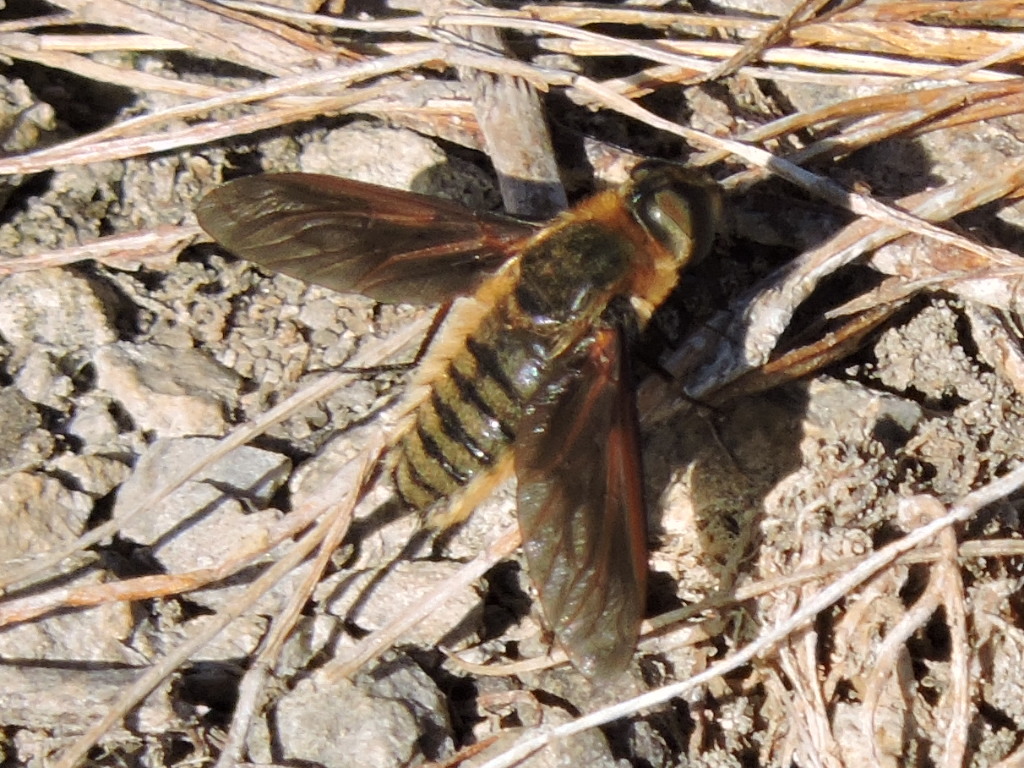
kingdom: Animalia
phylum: Arthropoda
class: Insecta
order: Diptera
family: Bombyliidae
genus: Poecilanthrax
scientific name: Poecilanthrax lucifer
